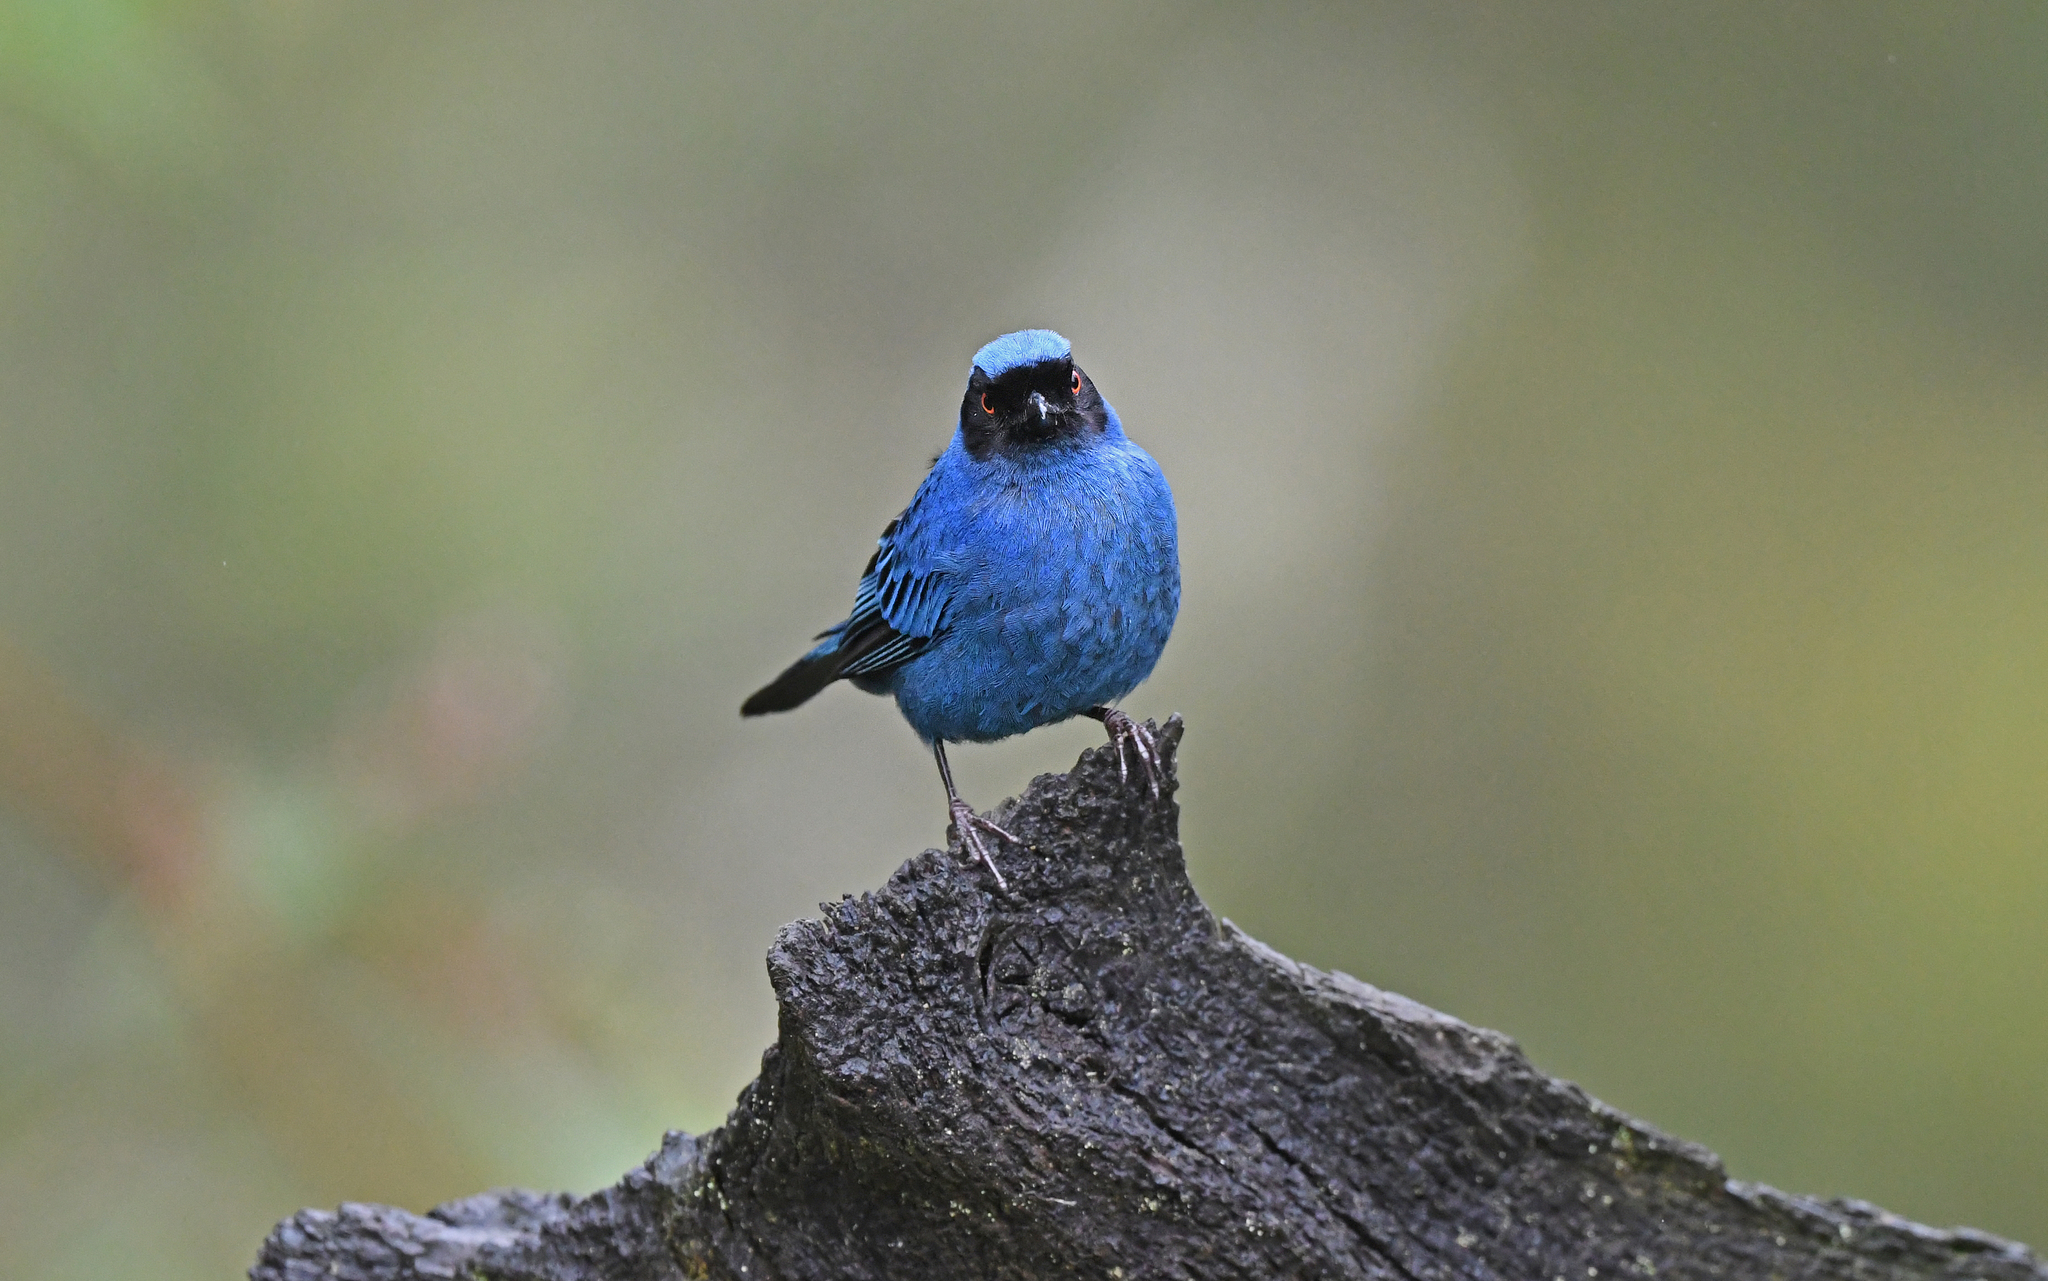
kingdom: Animalia
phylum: Chordata
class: Aves
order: Passeriformes
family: Thraupidae
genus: Diglossa
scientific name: Diglossa cyanea
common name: Masked flowerpiercer
